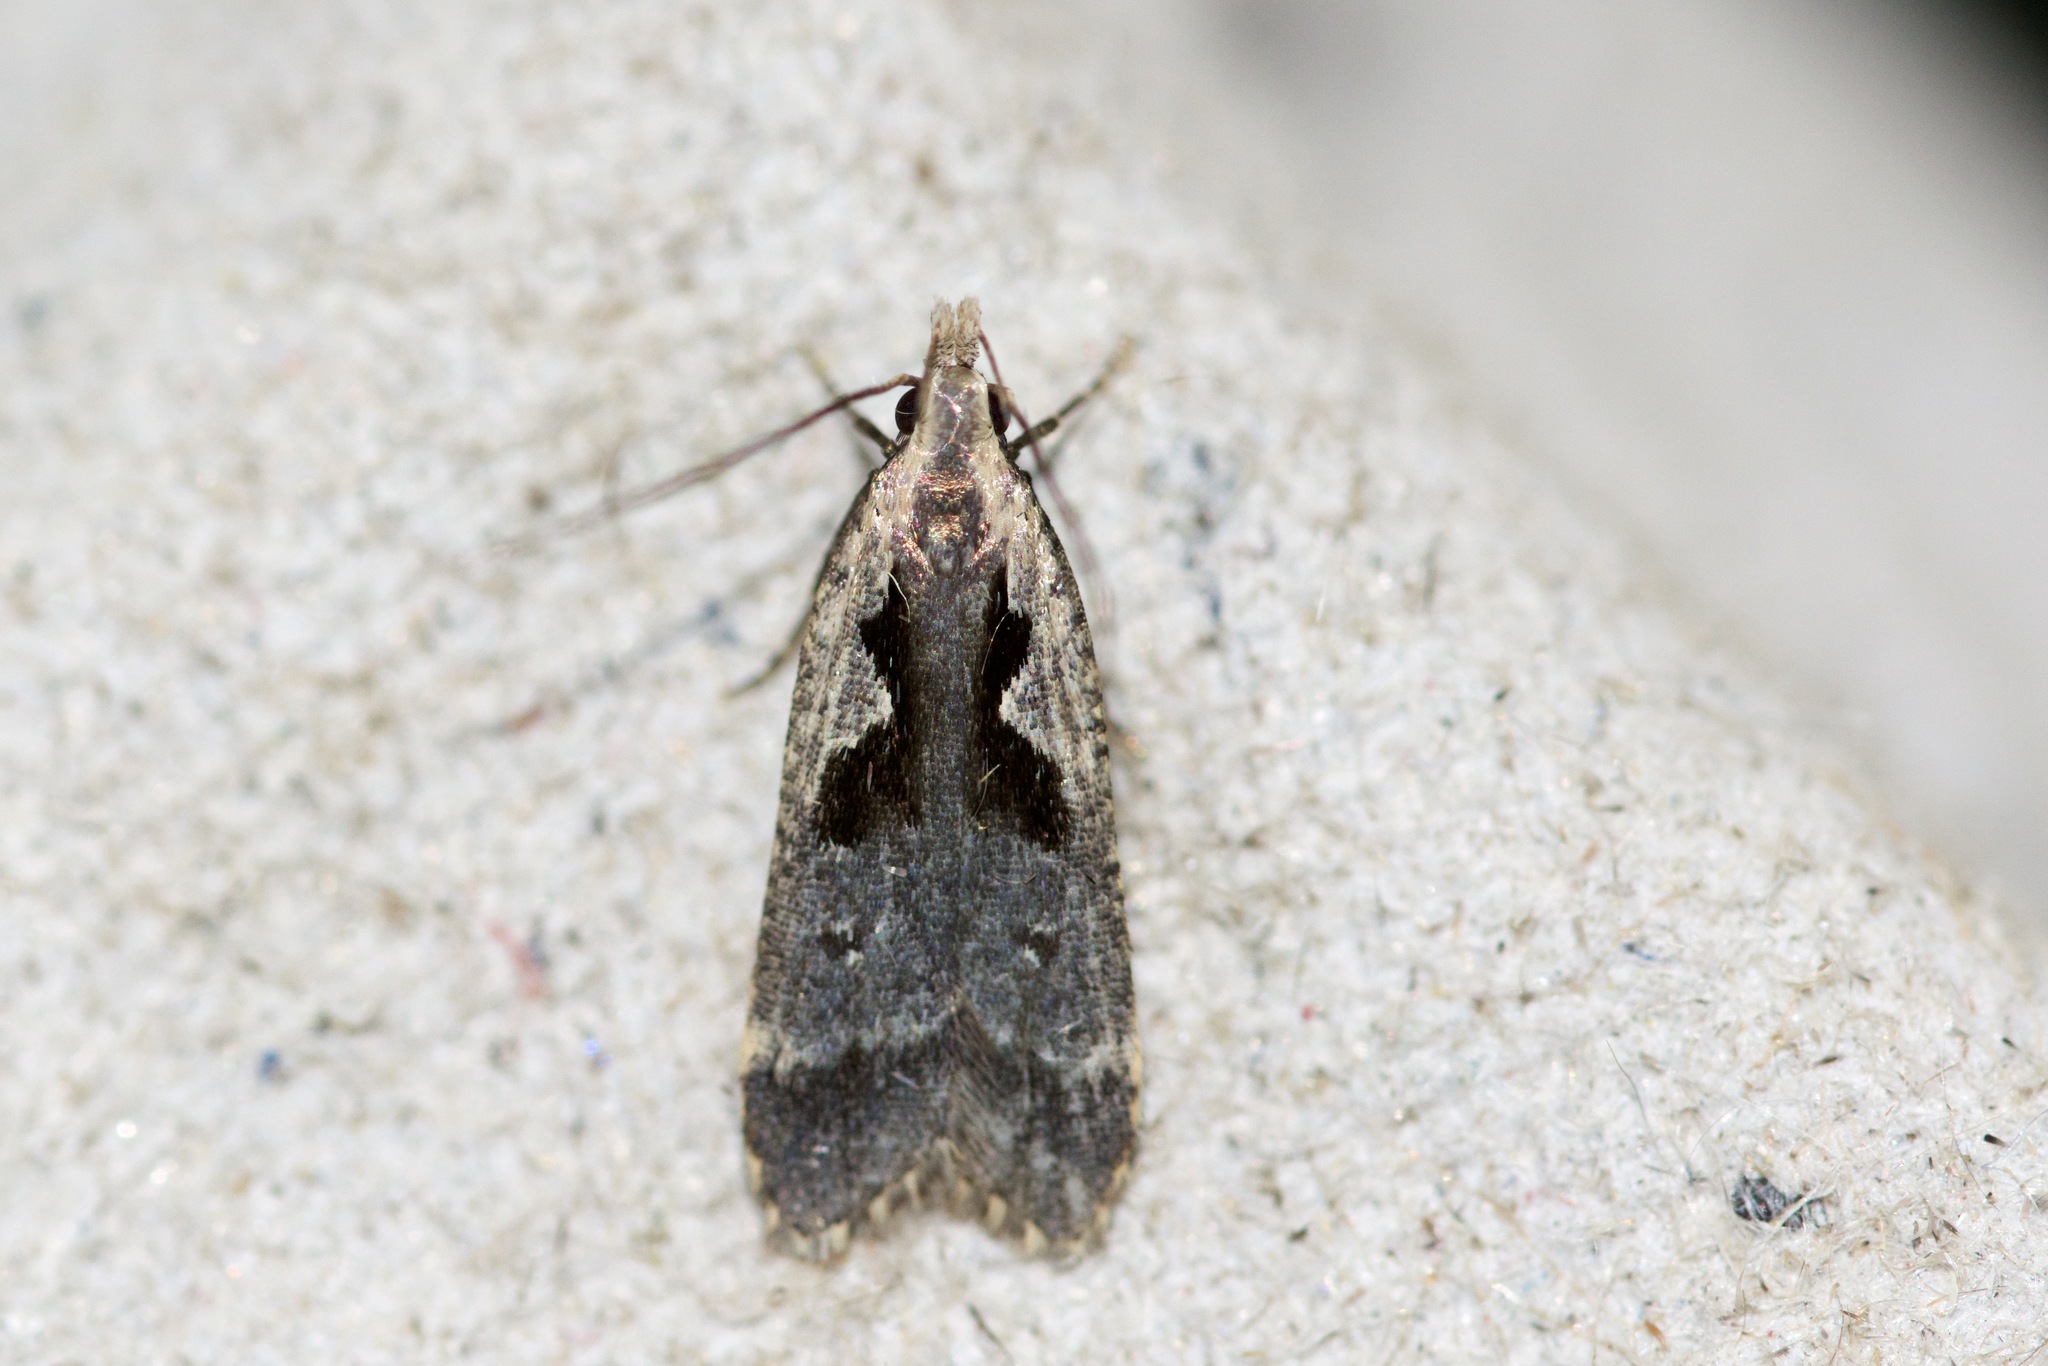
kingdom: Animalia
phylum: Arthropoda
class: Insecta
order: Lepidoptera
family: Gelechiidae
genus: Dichomeris
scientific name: Dichomeris bilobella
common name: Bilobed dichomeris moth
